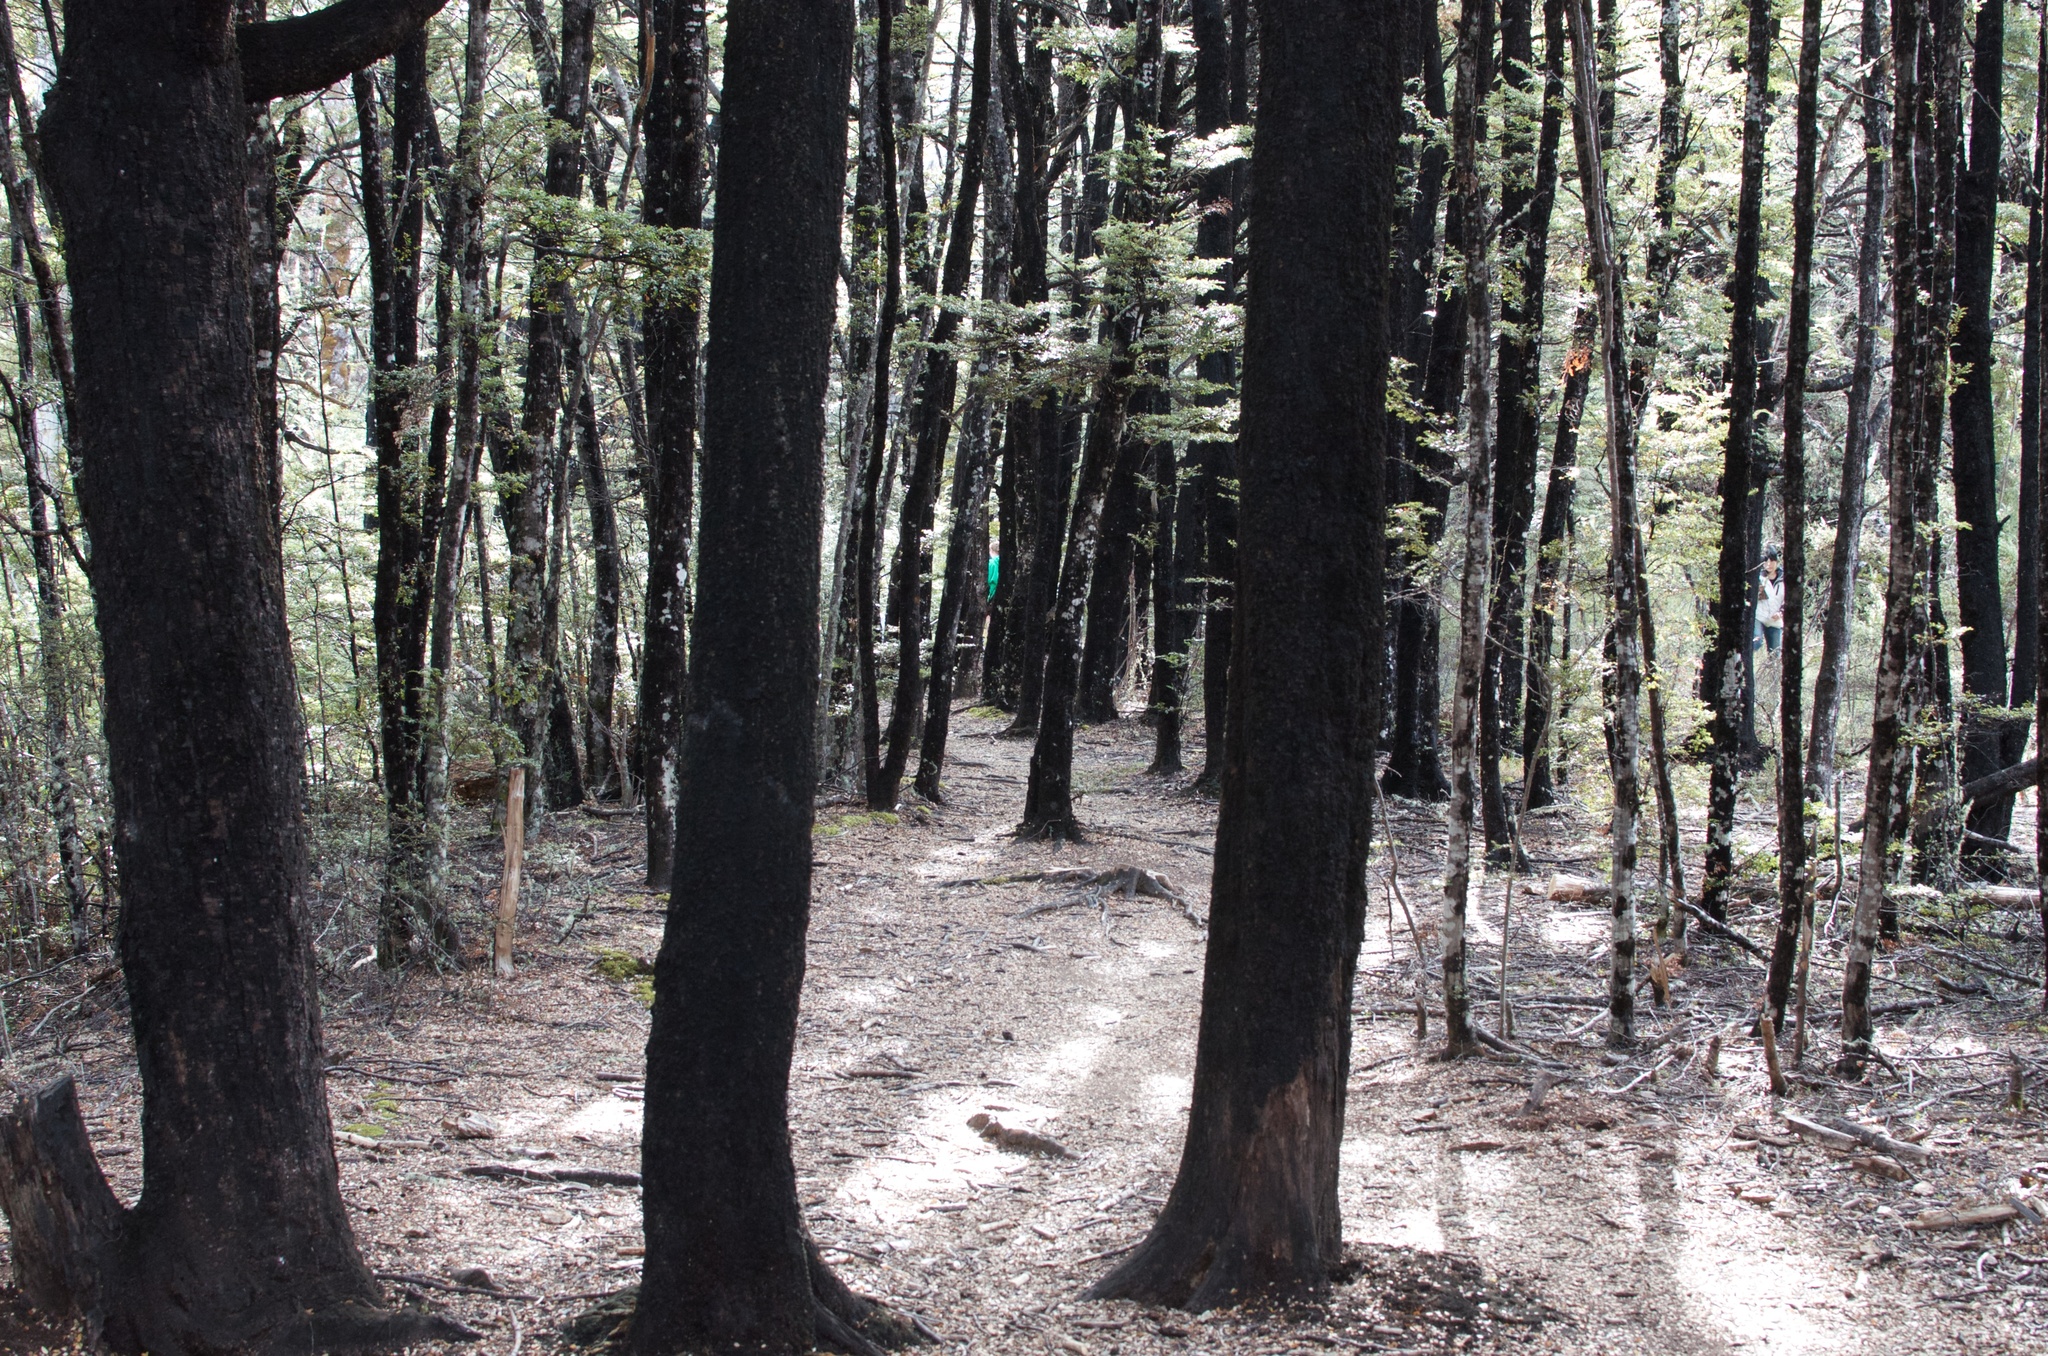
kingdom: Plantae
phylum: Tracheophyta
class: Magnoliopsida
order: Fagales
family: Nothofagaceae
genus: Nothofagus
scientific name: Nothofagus cliffortioides
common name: Mountain beech
